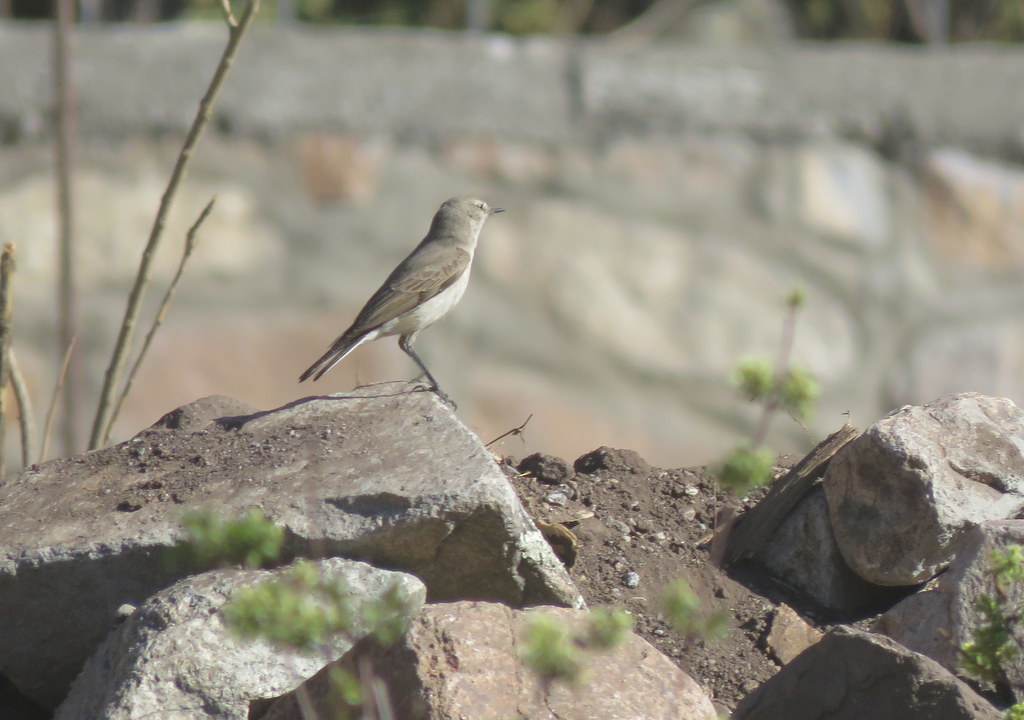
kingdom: Animalia
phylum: Chordata
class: Aves
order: Passeriformes
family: Tyrannidae
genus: Muscisaxicola
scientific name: Muscisaxicola maculirostris
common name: Spot-billed ground tyrant
